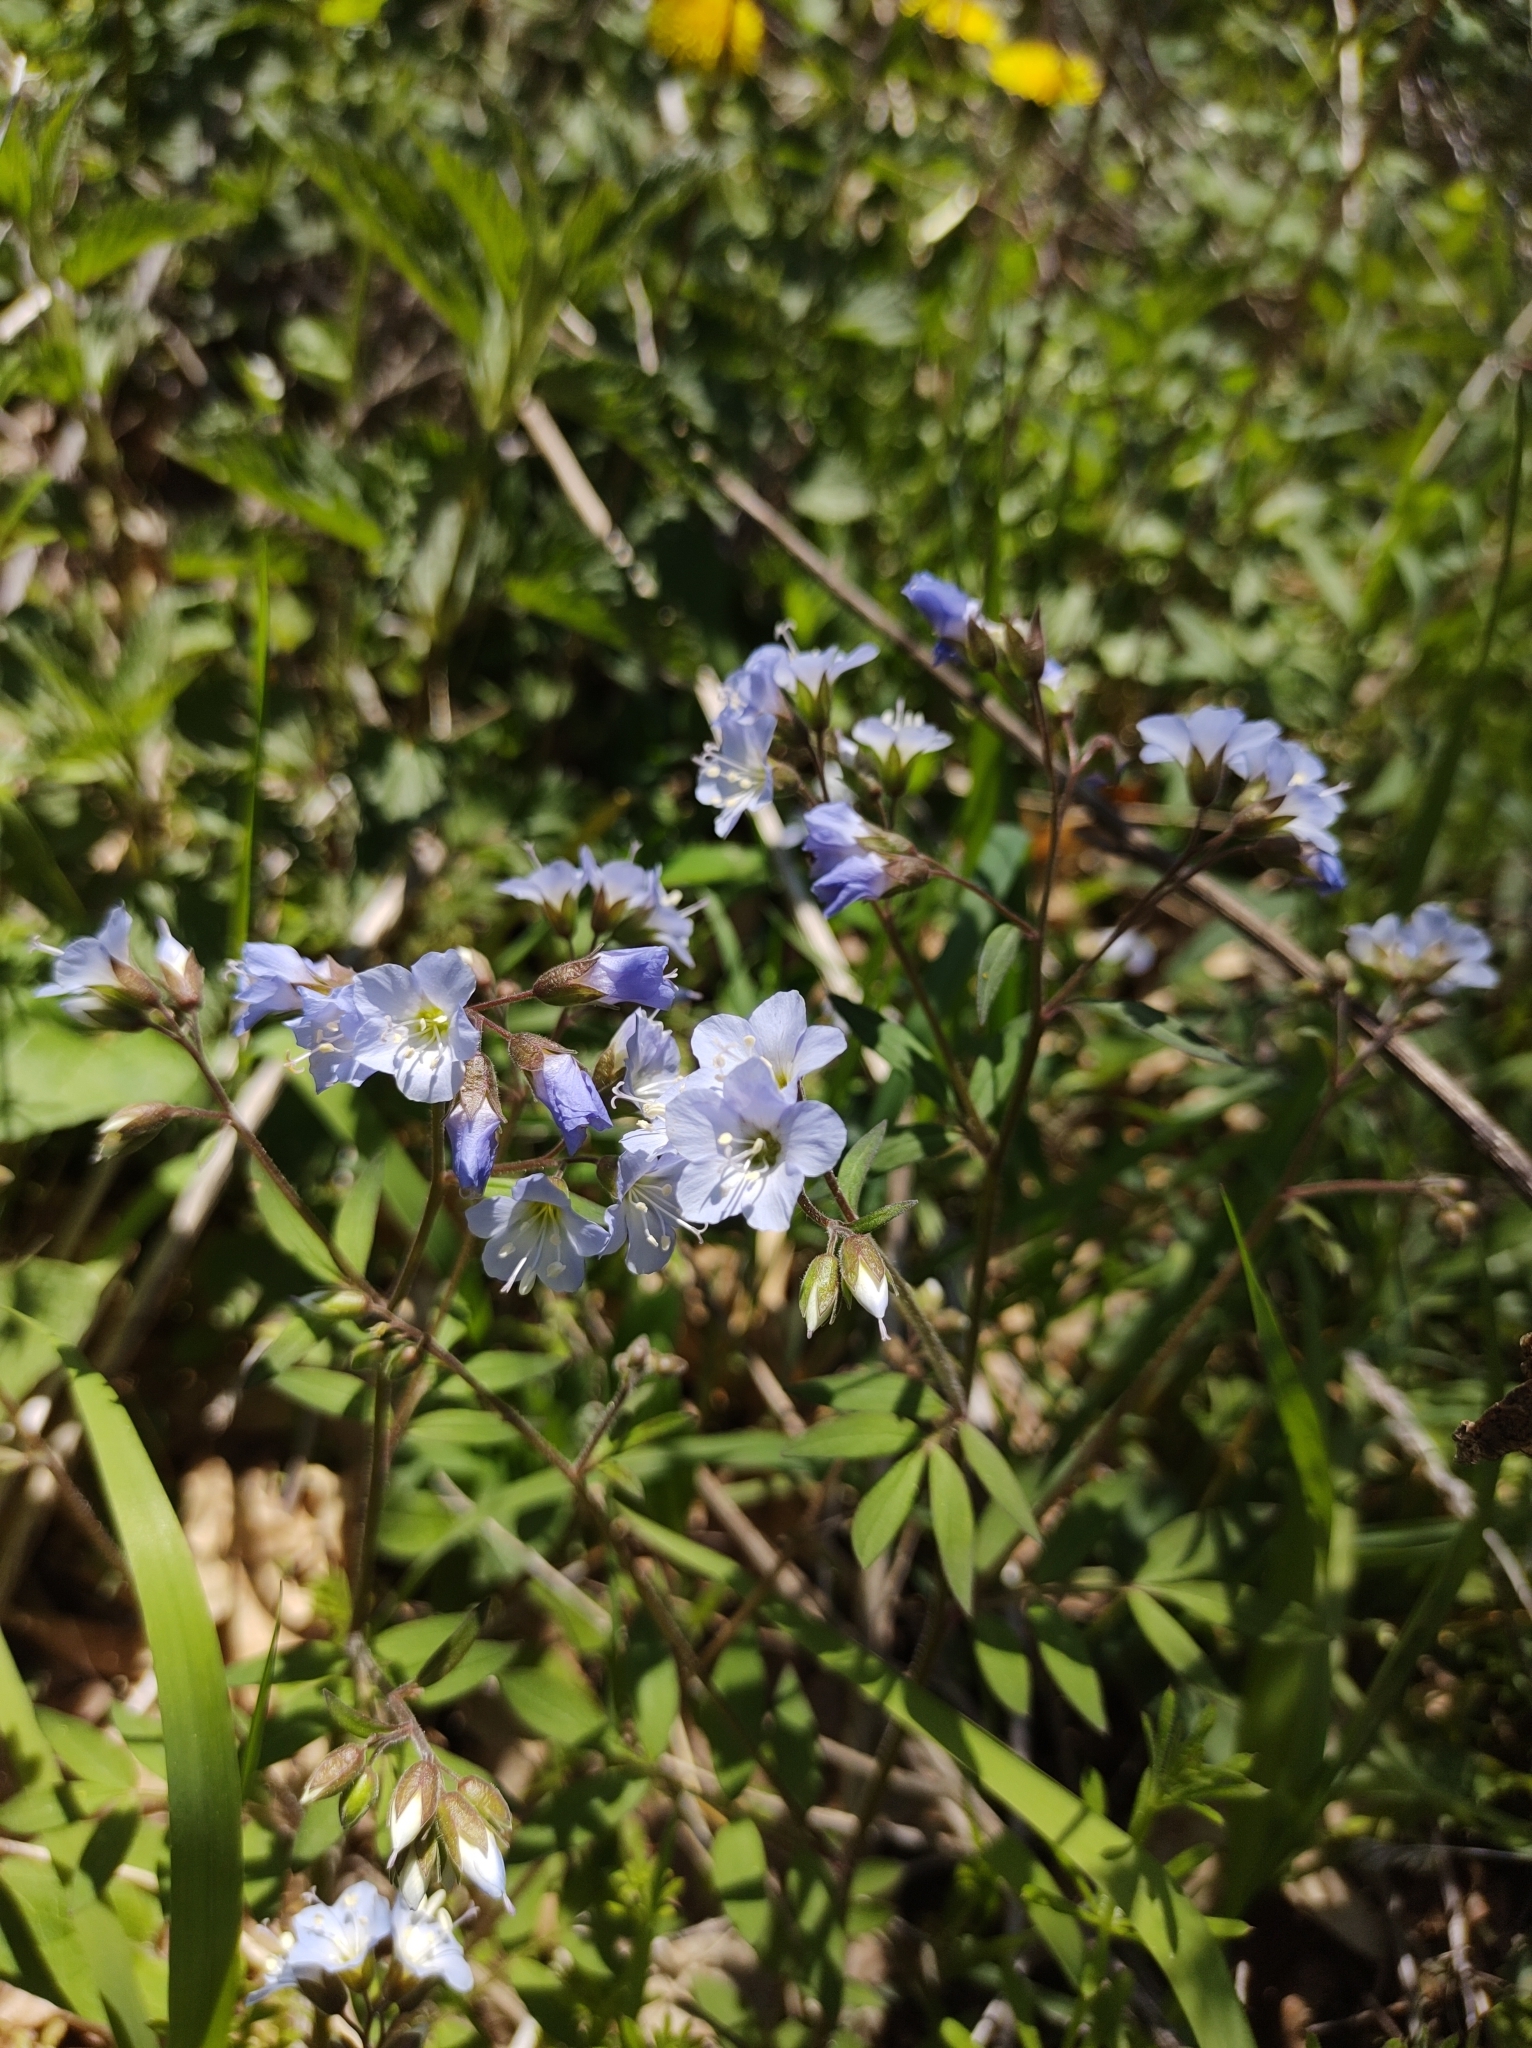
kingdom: Plantae
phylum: Tracheophyta
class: Magnoliopsida
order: Ericales
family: Polemoniaceae
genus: Polemonium
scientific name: Polemonium reptans
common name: Creeping jacob's-ladder
